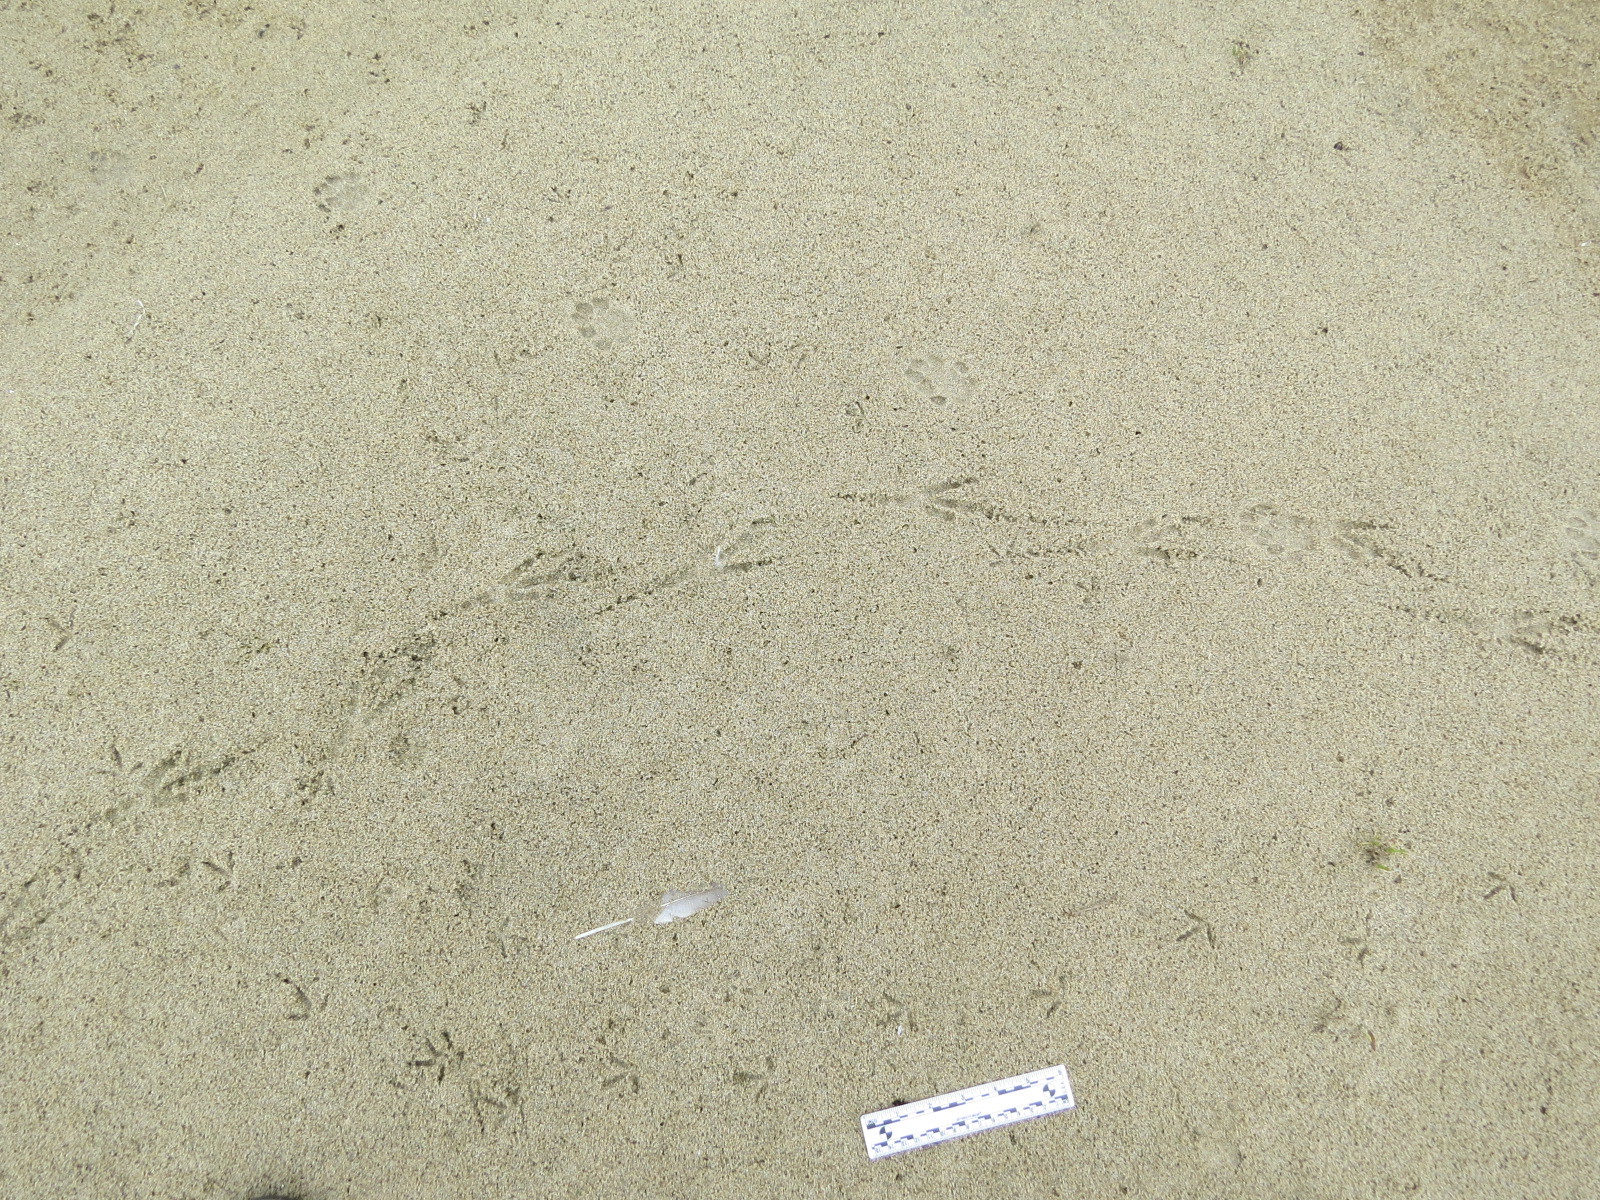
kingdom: Animalia
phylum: Chordata
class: Aves
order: Passeriformes
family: Corvidae
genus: Corvus
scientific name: Corvus corax
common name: Common raven
